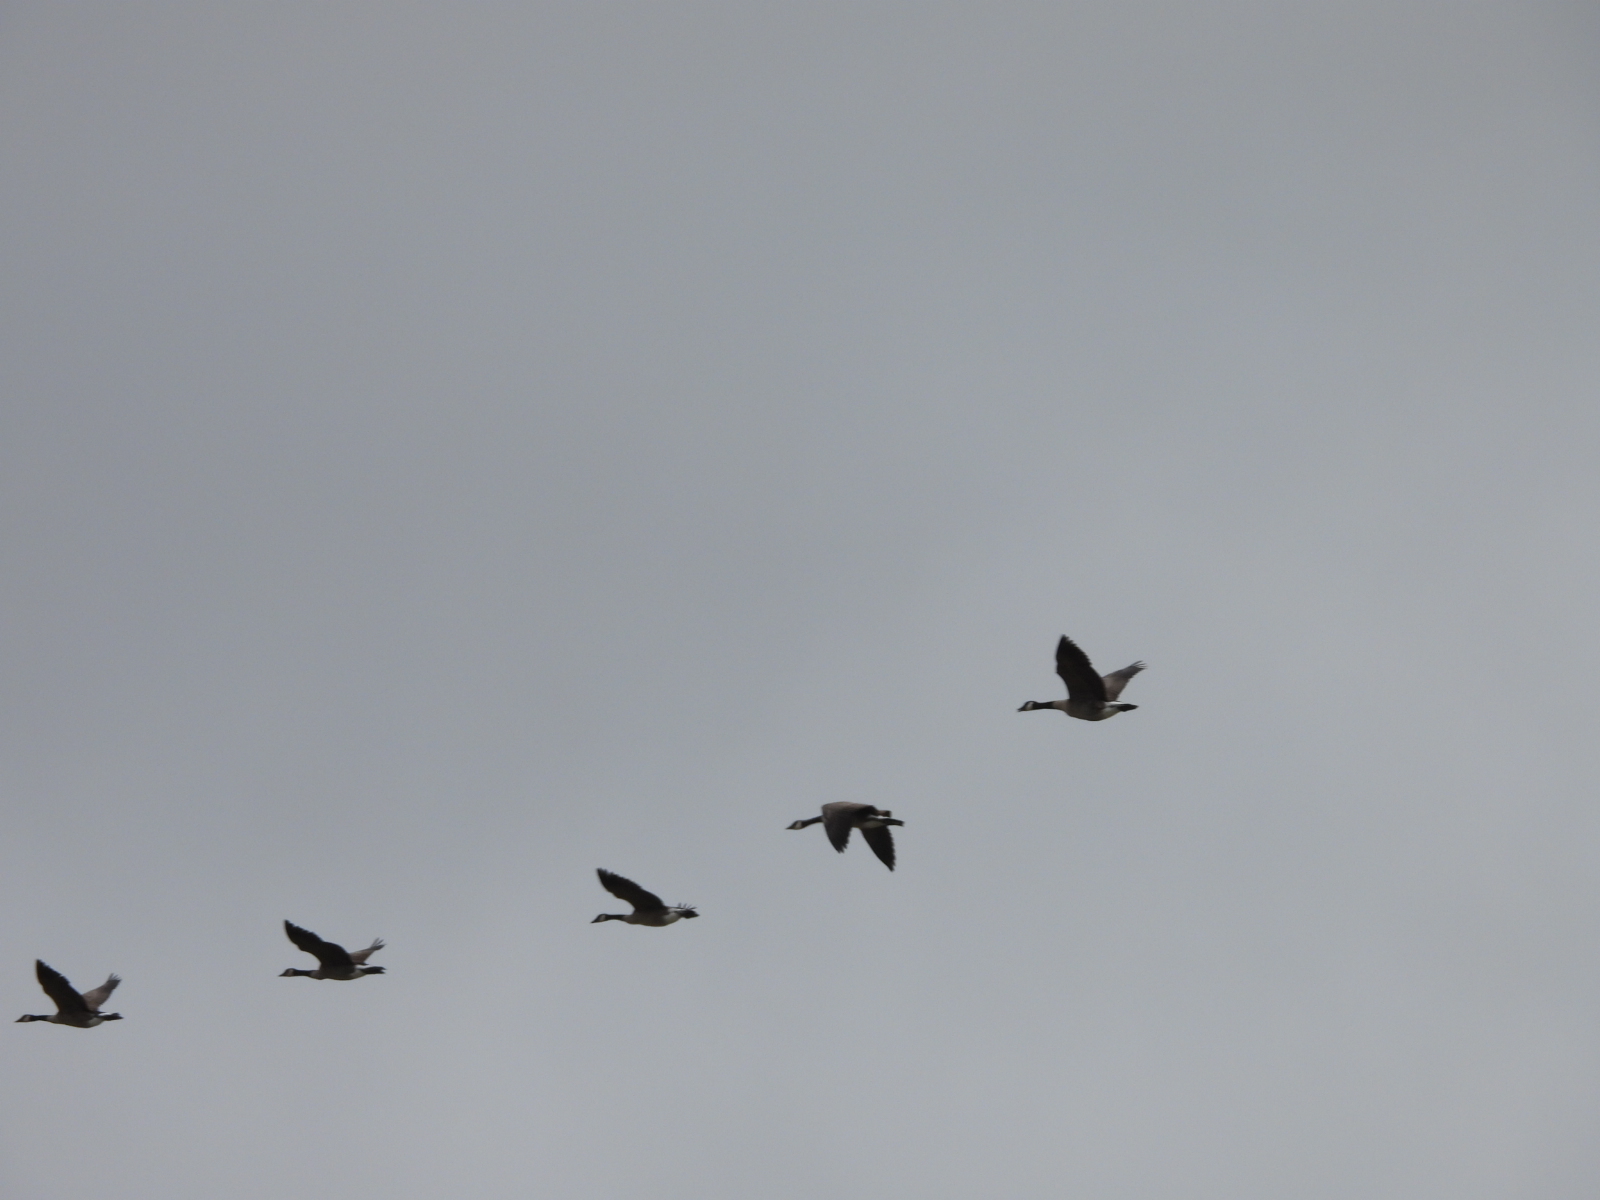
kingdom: Animalia
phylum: Chordata
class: Aves
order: Anseriformes
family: Anatidae
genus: Branta
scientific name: Branta canadensis
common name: Canada goose
